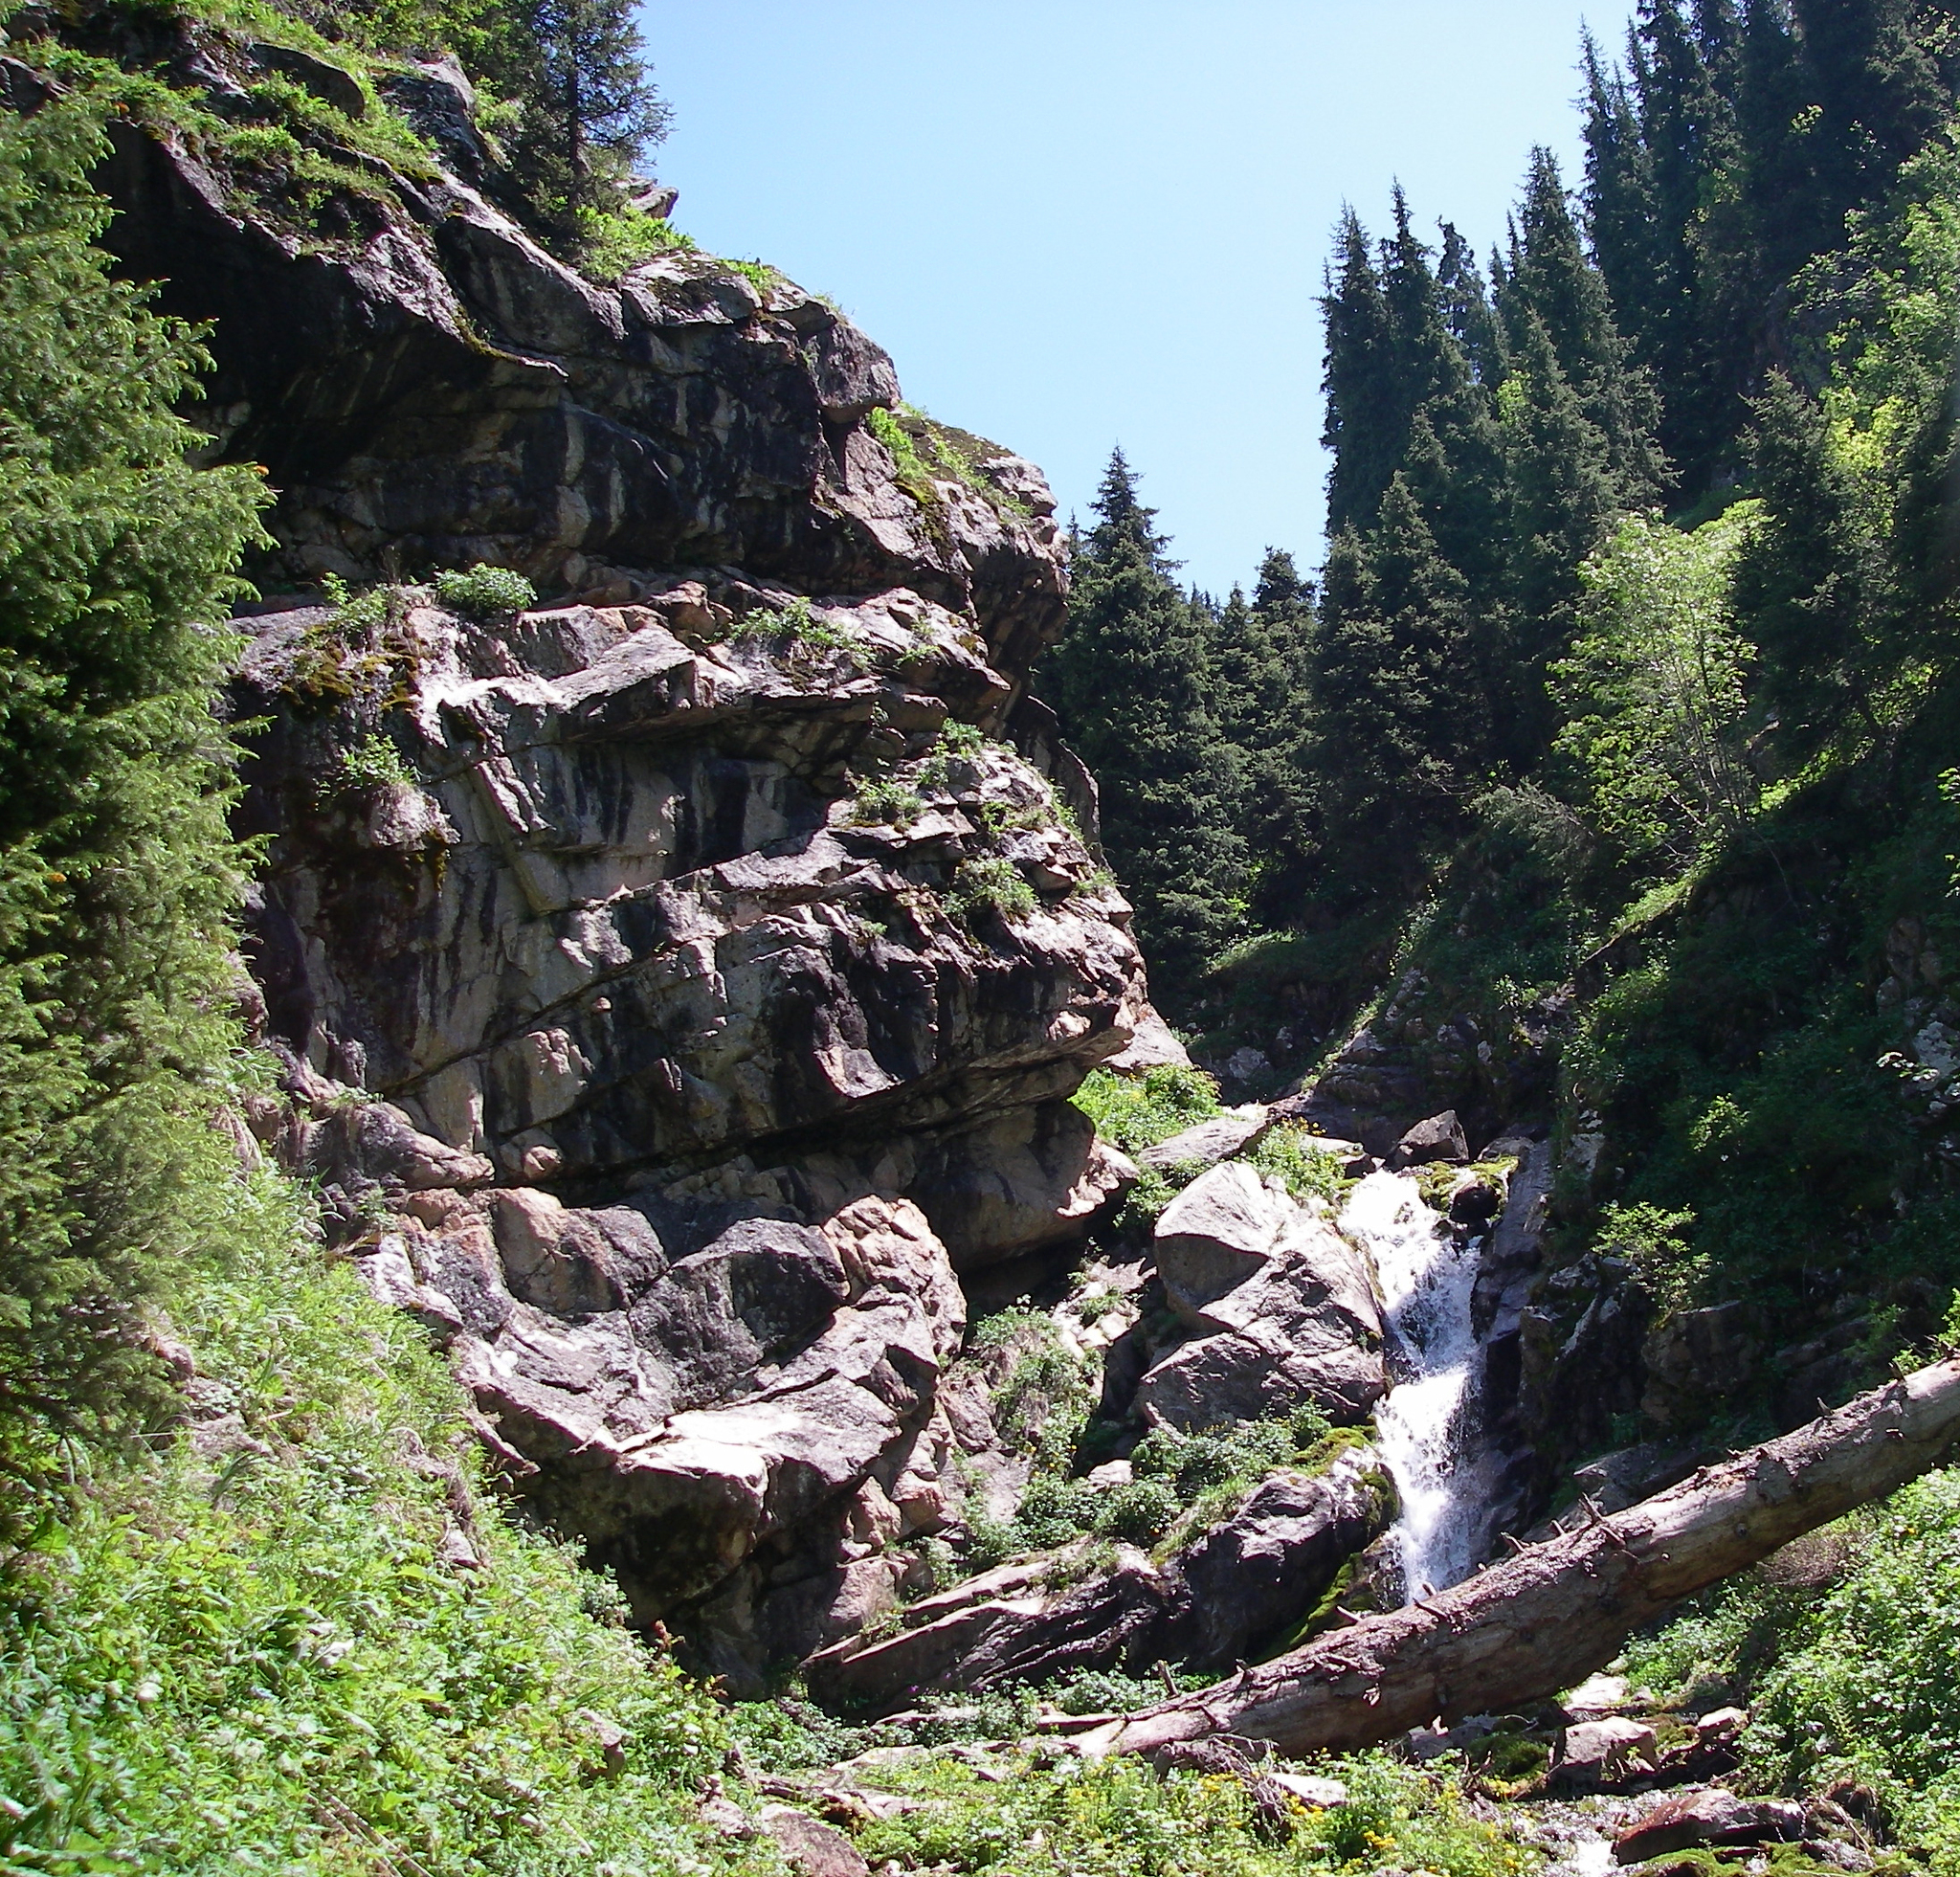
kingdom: Plantae
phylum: Tracheophyta
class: Pinopsida
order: Pinales
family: Pinaceae
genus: Picea
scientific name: Picea schrenkiana
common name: Asian spruce
